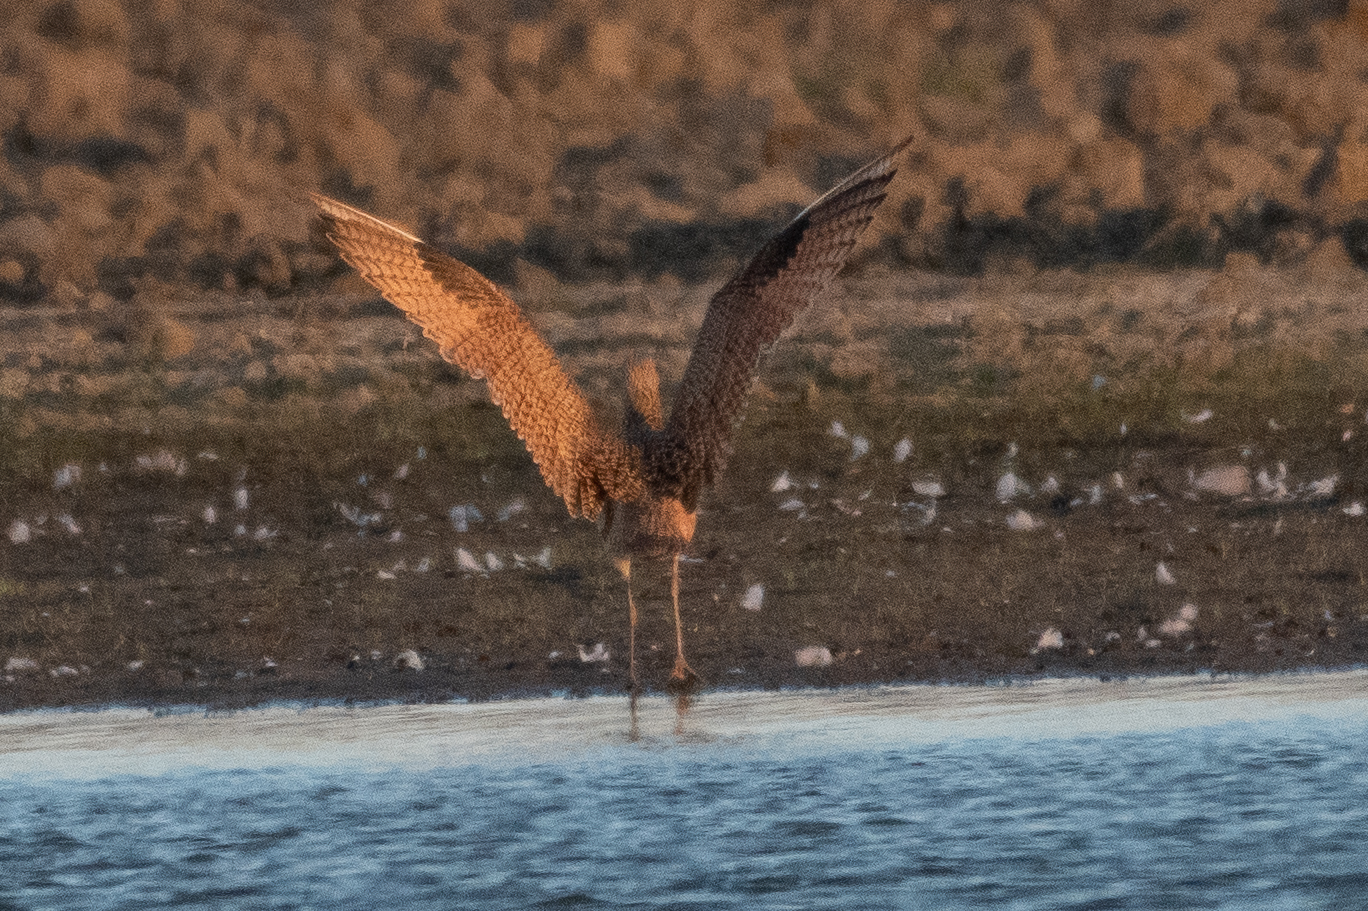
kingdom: Animalia
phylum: Chordata
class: Aves
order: Charadriiformes
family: Scolopacidae
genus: Numenius
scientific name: Numenius americanus
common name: Long-billed curlew
